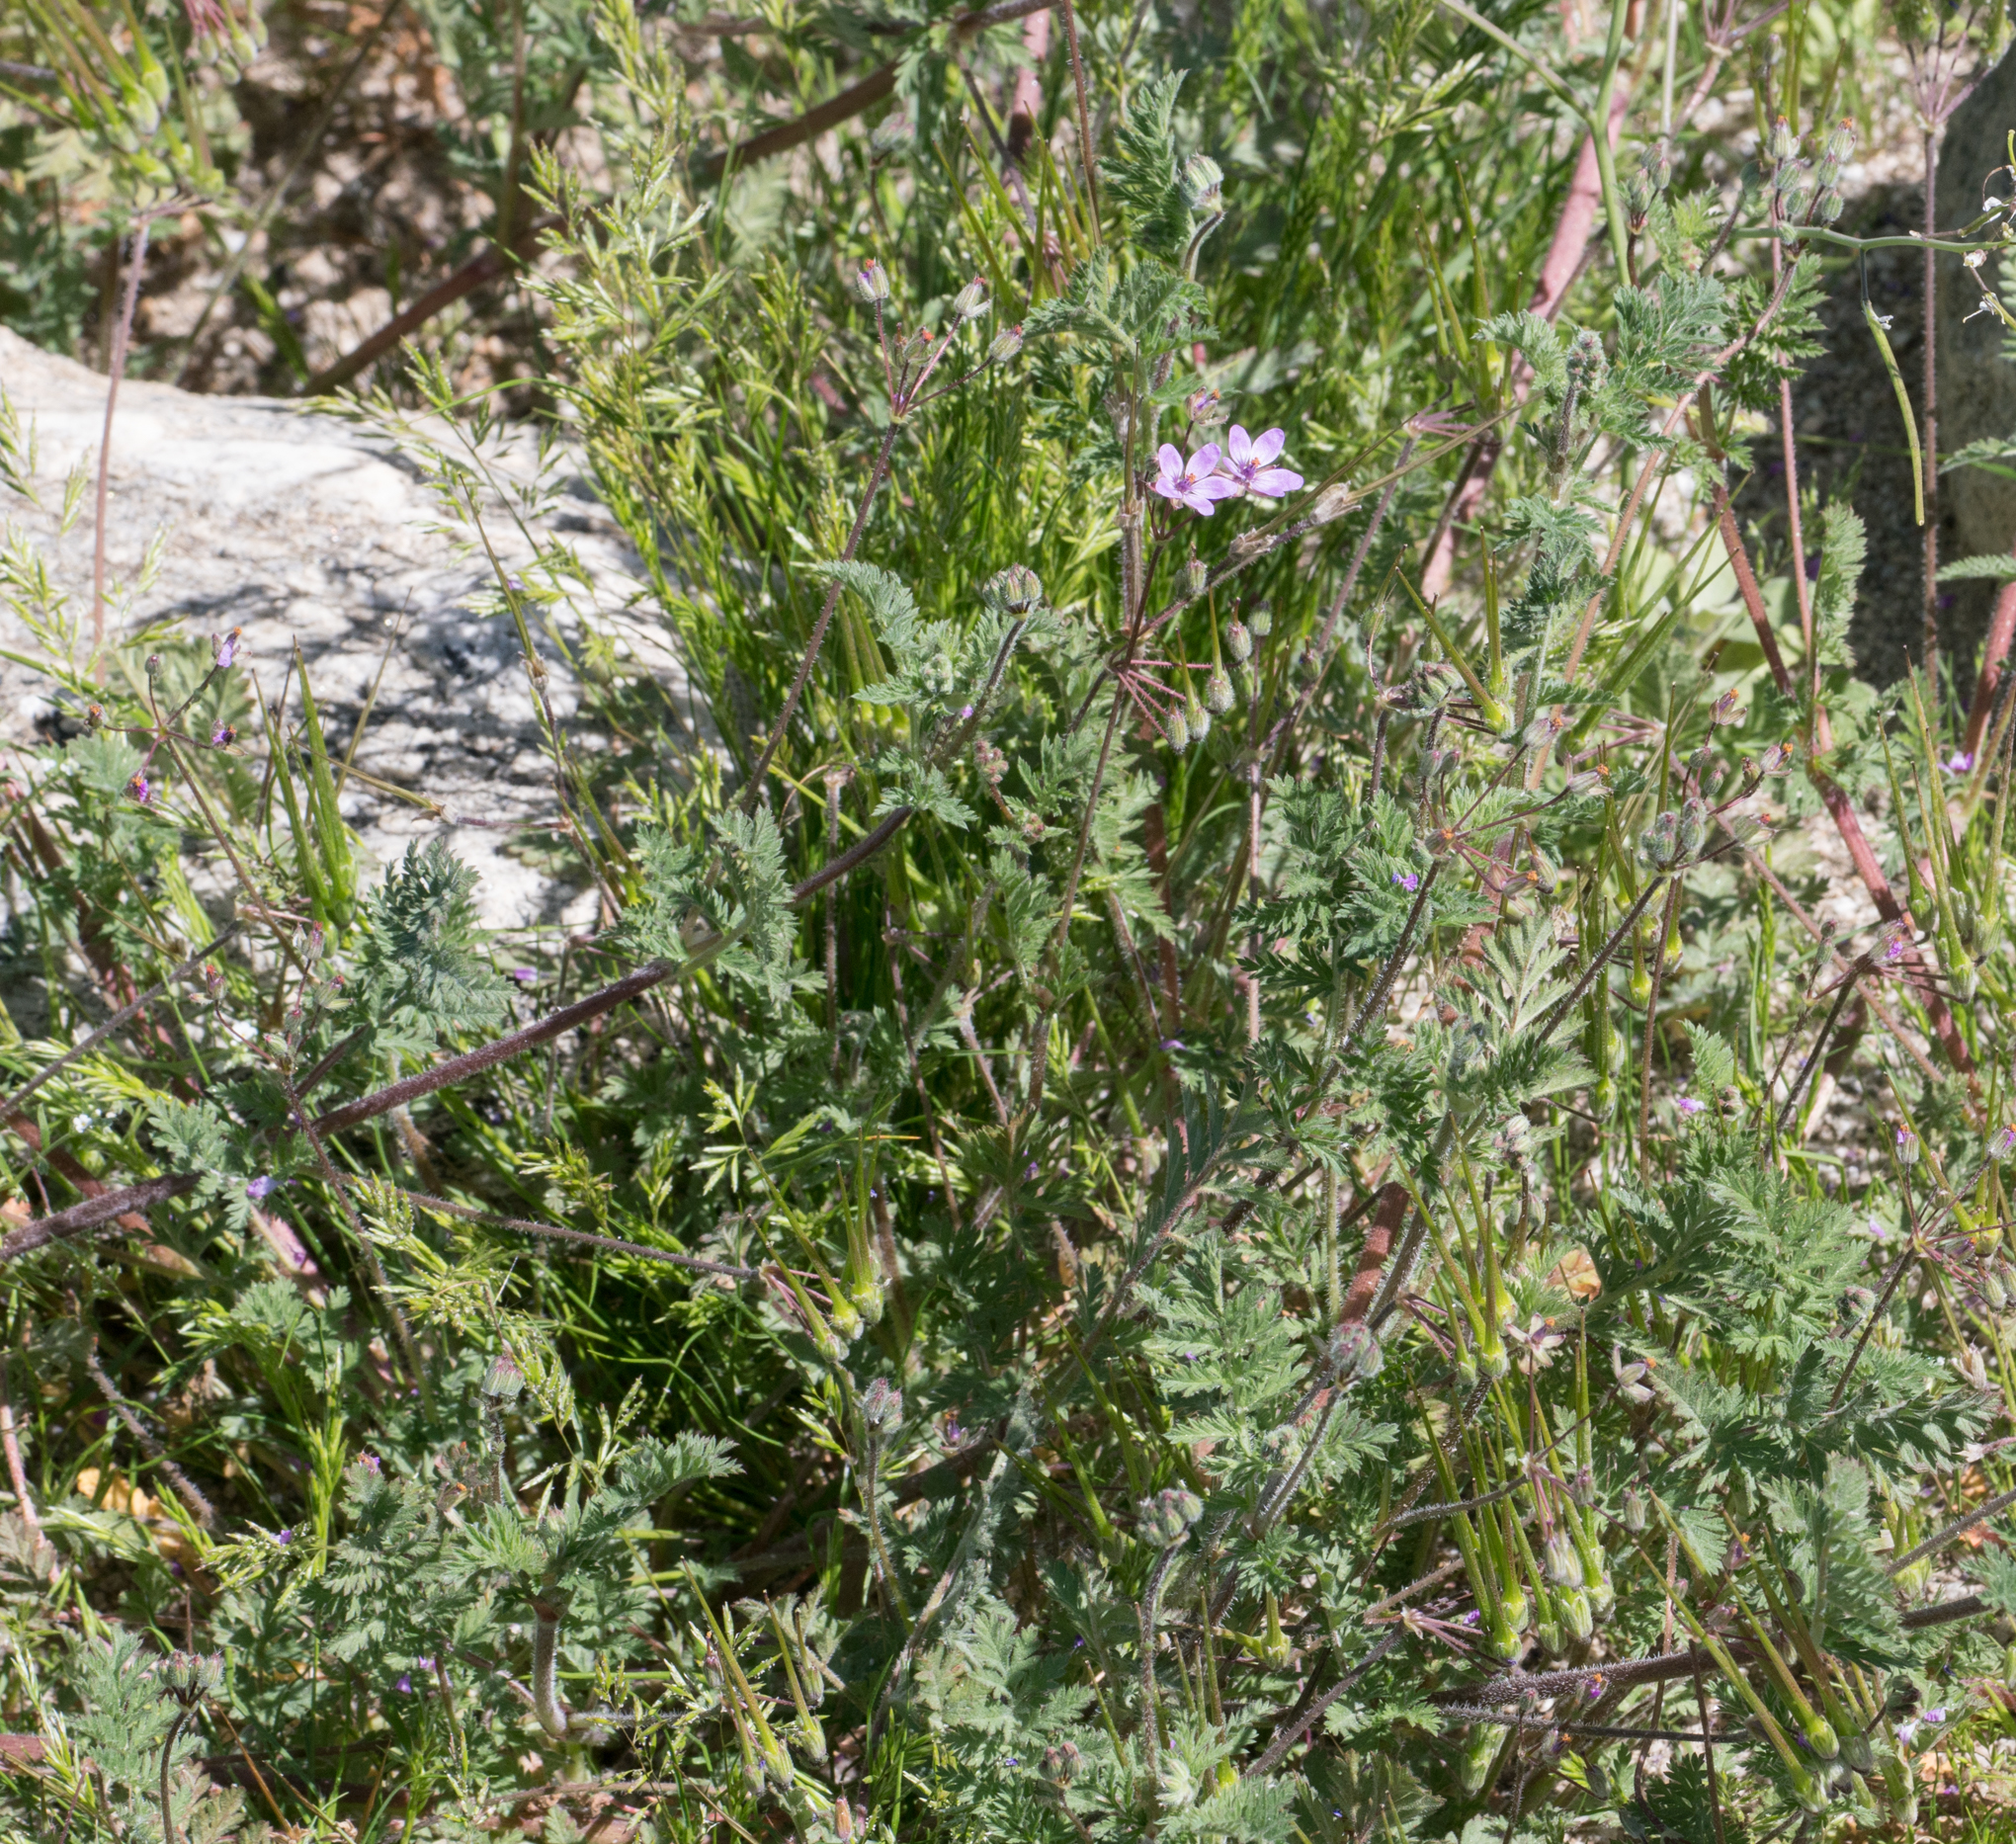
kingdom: Plantae
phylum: Tracheophyta
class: Magnoliopsida
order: Geraniales
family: Geraniaceae
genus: Erodium
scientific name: Erodium cicutarium
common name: Common stork's-bill
